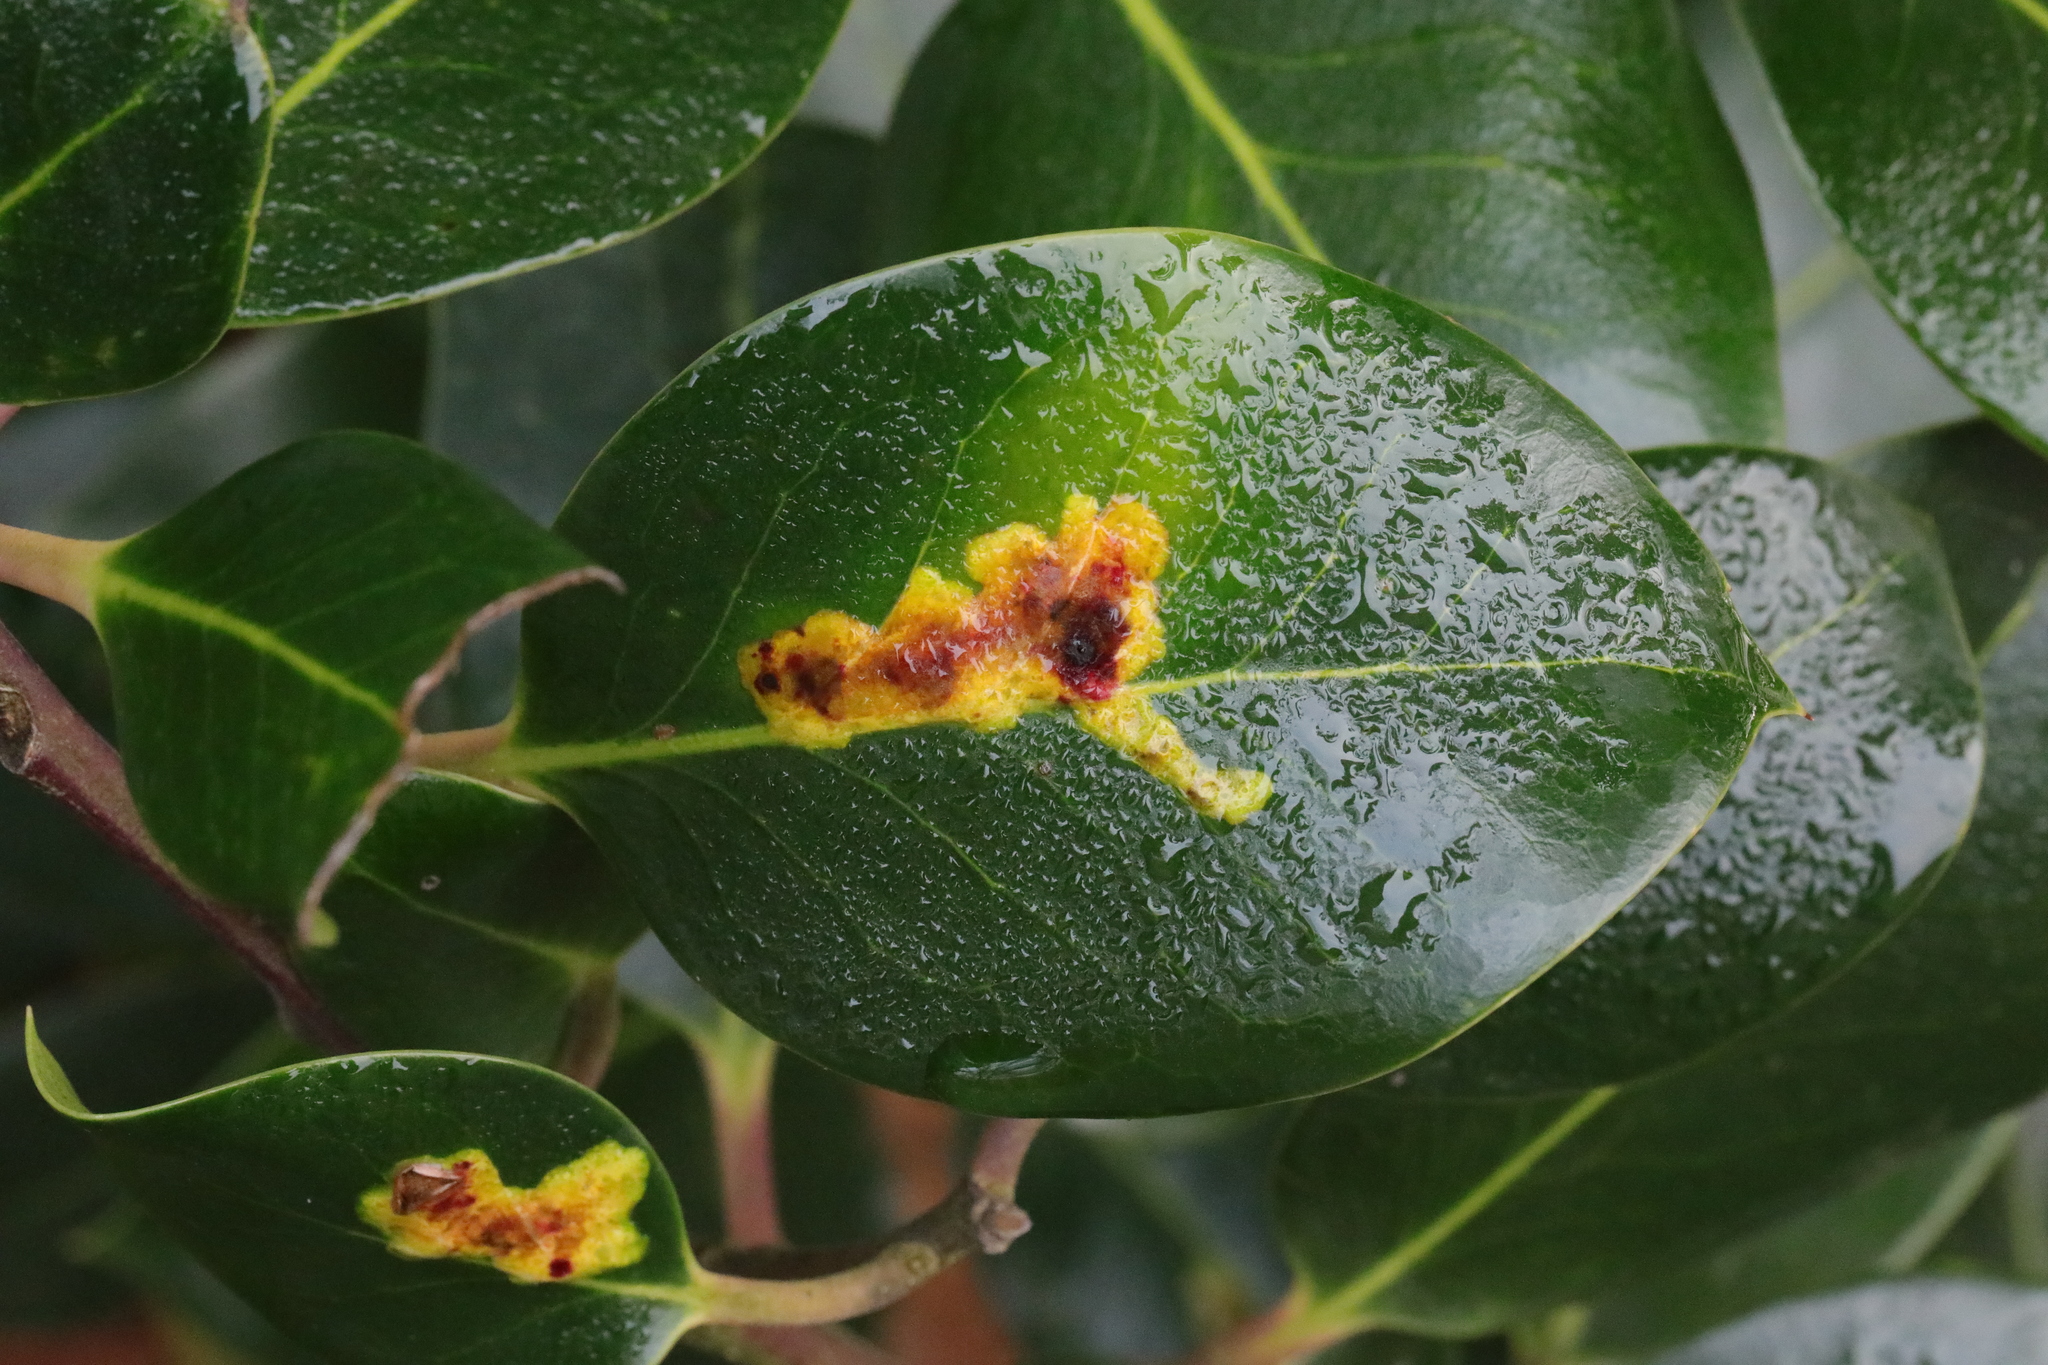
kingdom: Animalia
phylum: Arthropoda
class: Insecta
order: Diptera
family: Agromyzidae
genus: Phytomyza
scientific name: Phytomyza ilicis
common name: Holly leafminer
